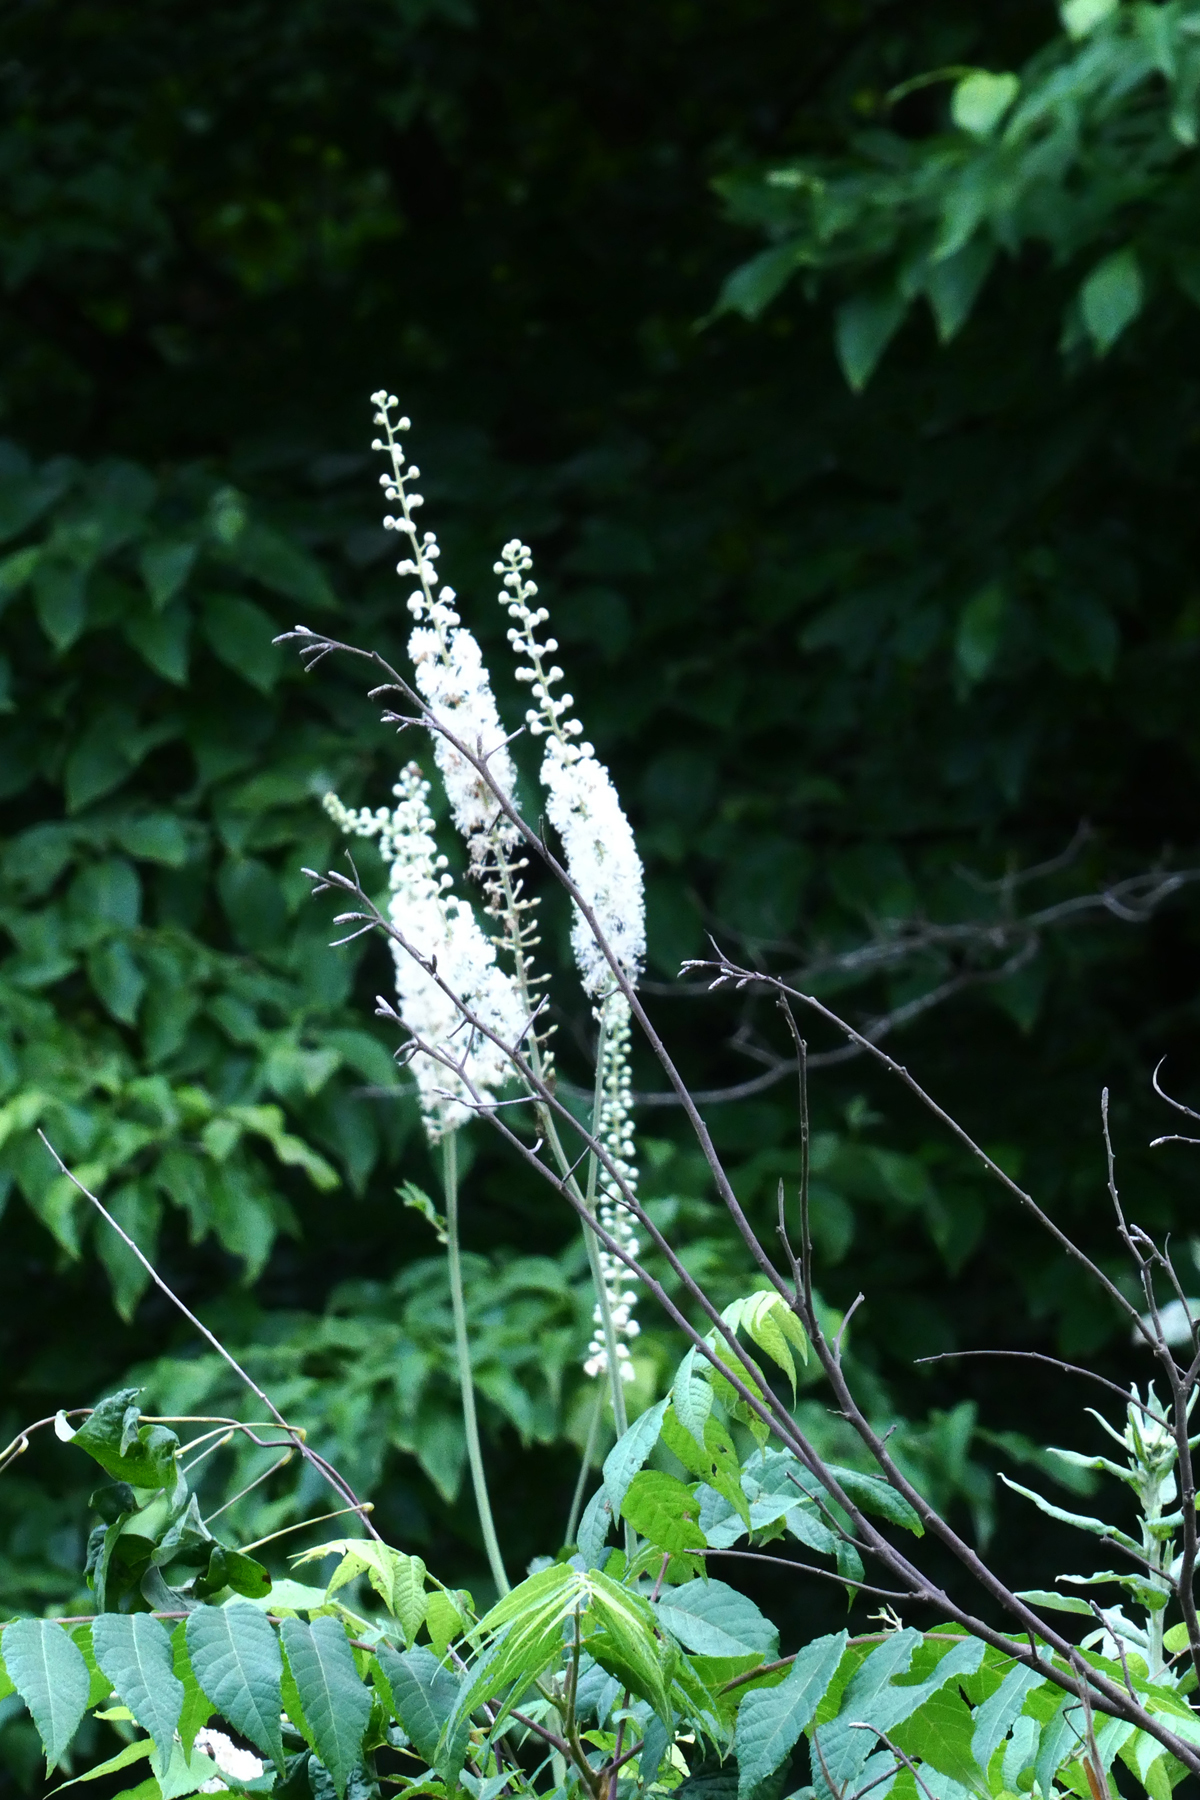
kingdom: Plantae
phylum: Tracheophyta
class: Magnoliopsida
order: Ranunculales
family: Ranunculaceae
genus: Actaea
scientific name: Actaea racemosa
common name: Black cohosh
